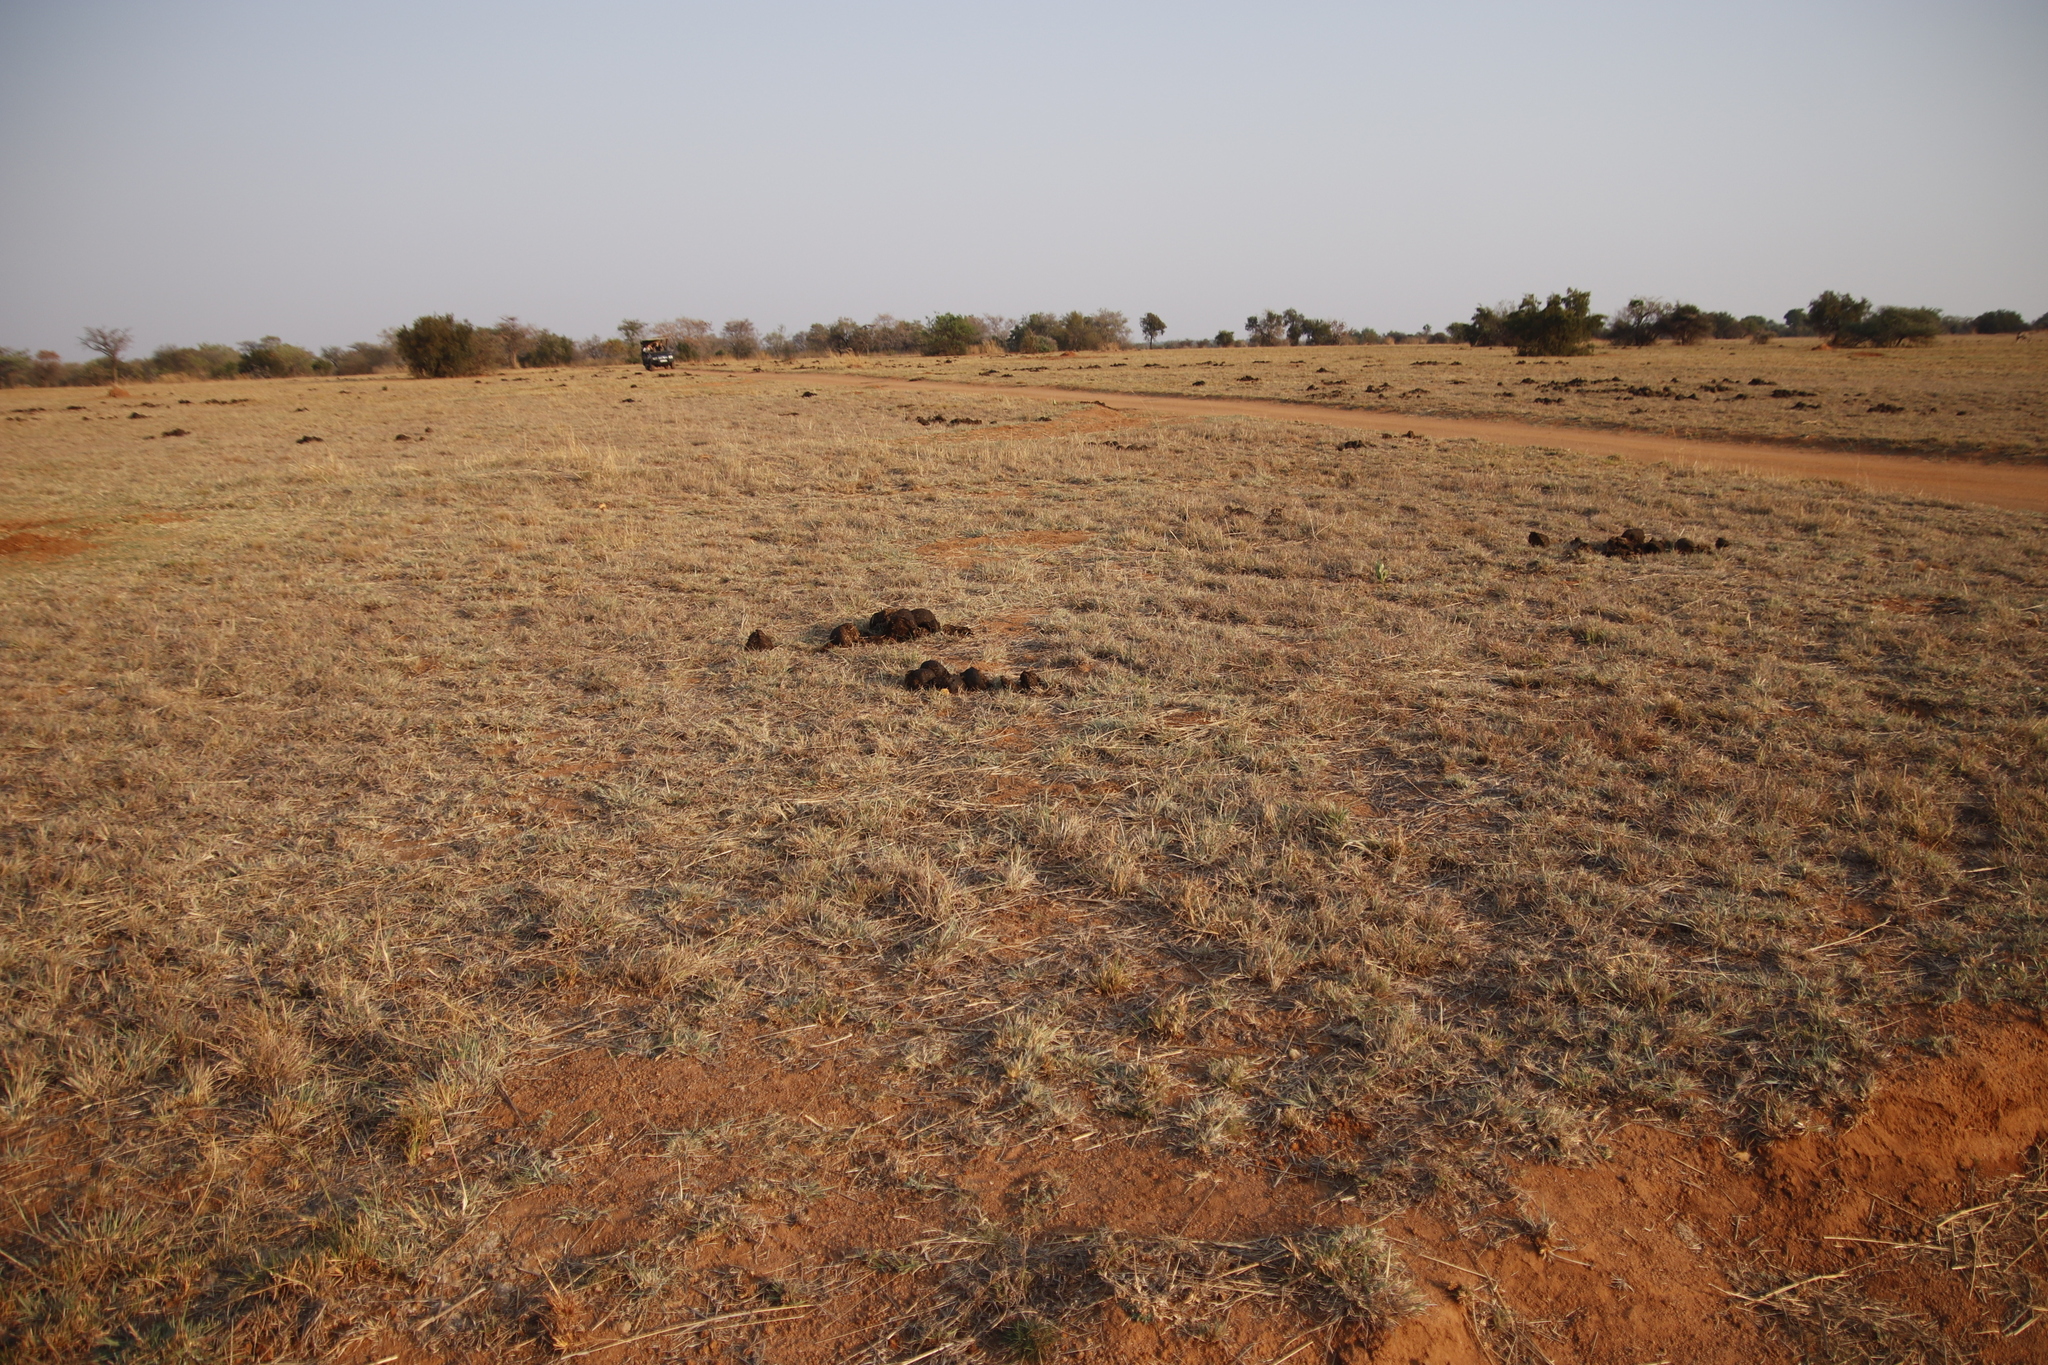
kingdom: Animalia
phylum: Chordata
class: Mammalia
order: Perissodactyla
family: Rhinocerotidae
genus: Ceratotherium
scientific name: Ceratotherium simum
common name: White rhinoceros
